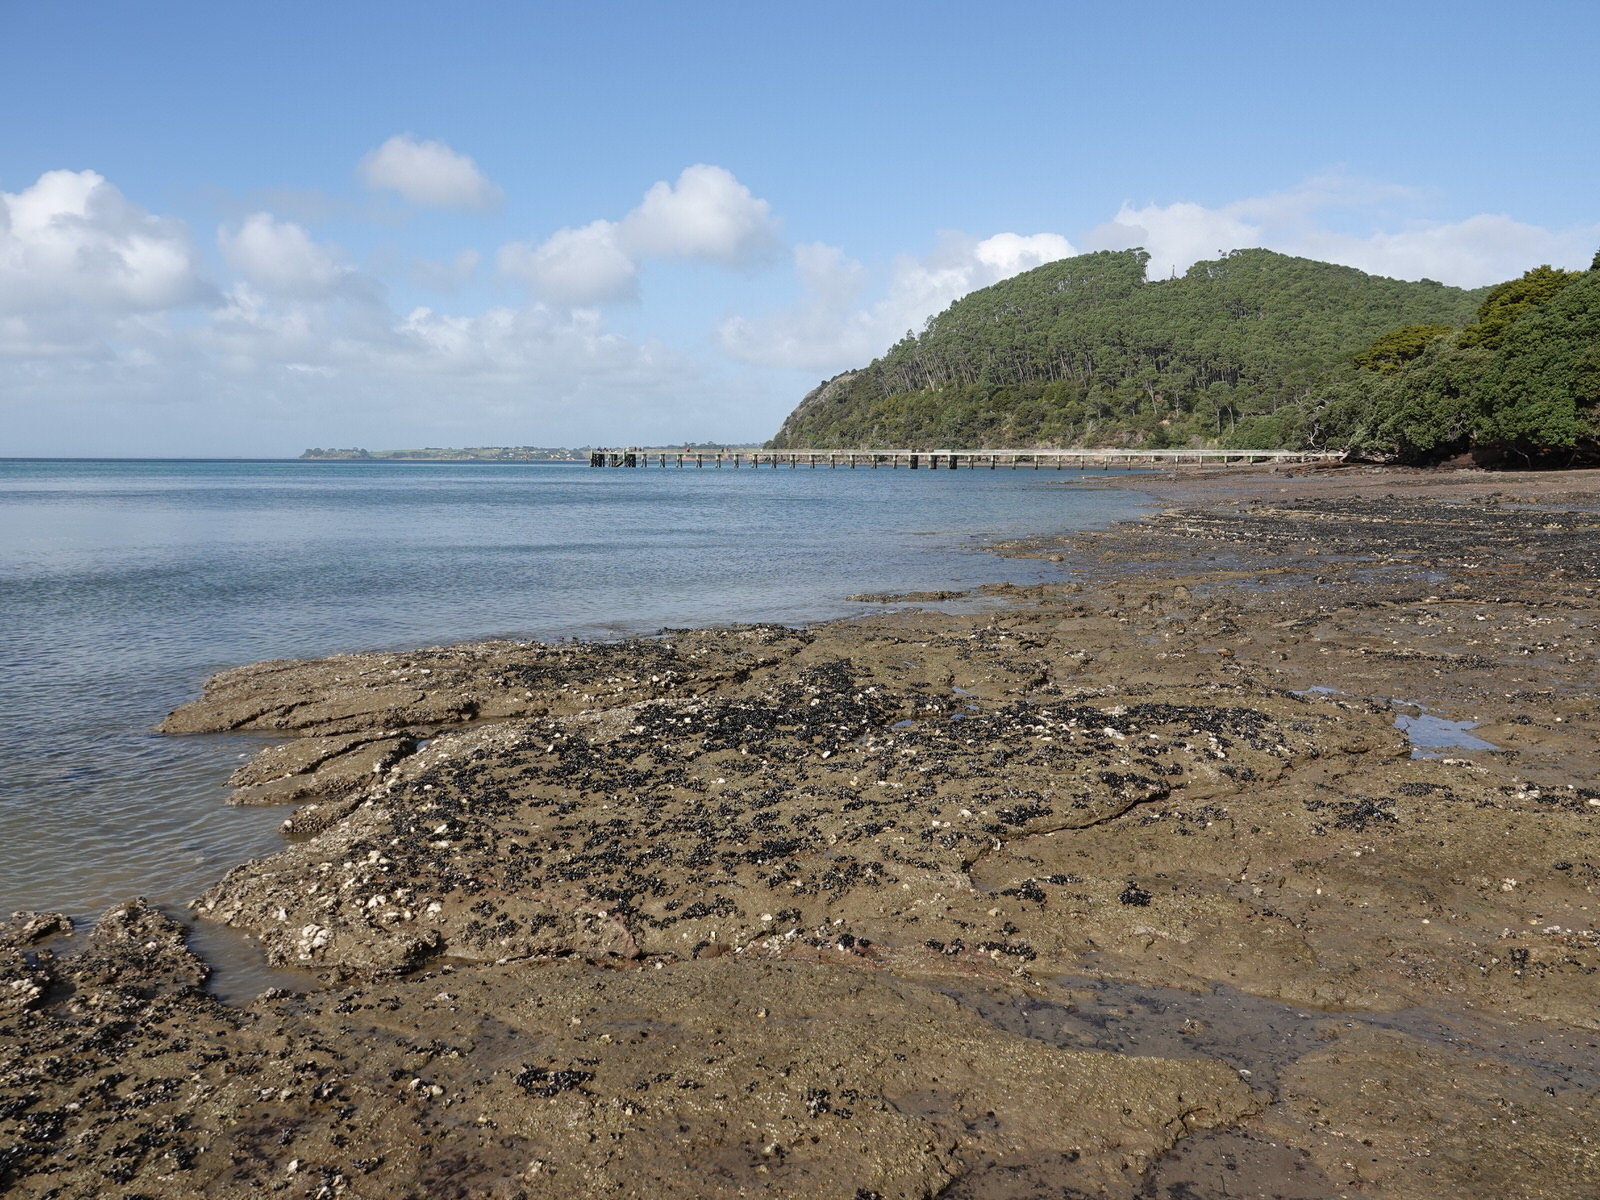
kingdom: Animalia
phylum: Mollusca
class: Bivalvia
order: Mytilida
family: Mytilidae
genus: Arcuatula
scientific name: Arcuatula senhousia
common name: Asian mussel
